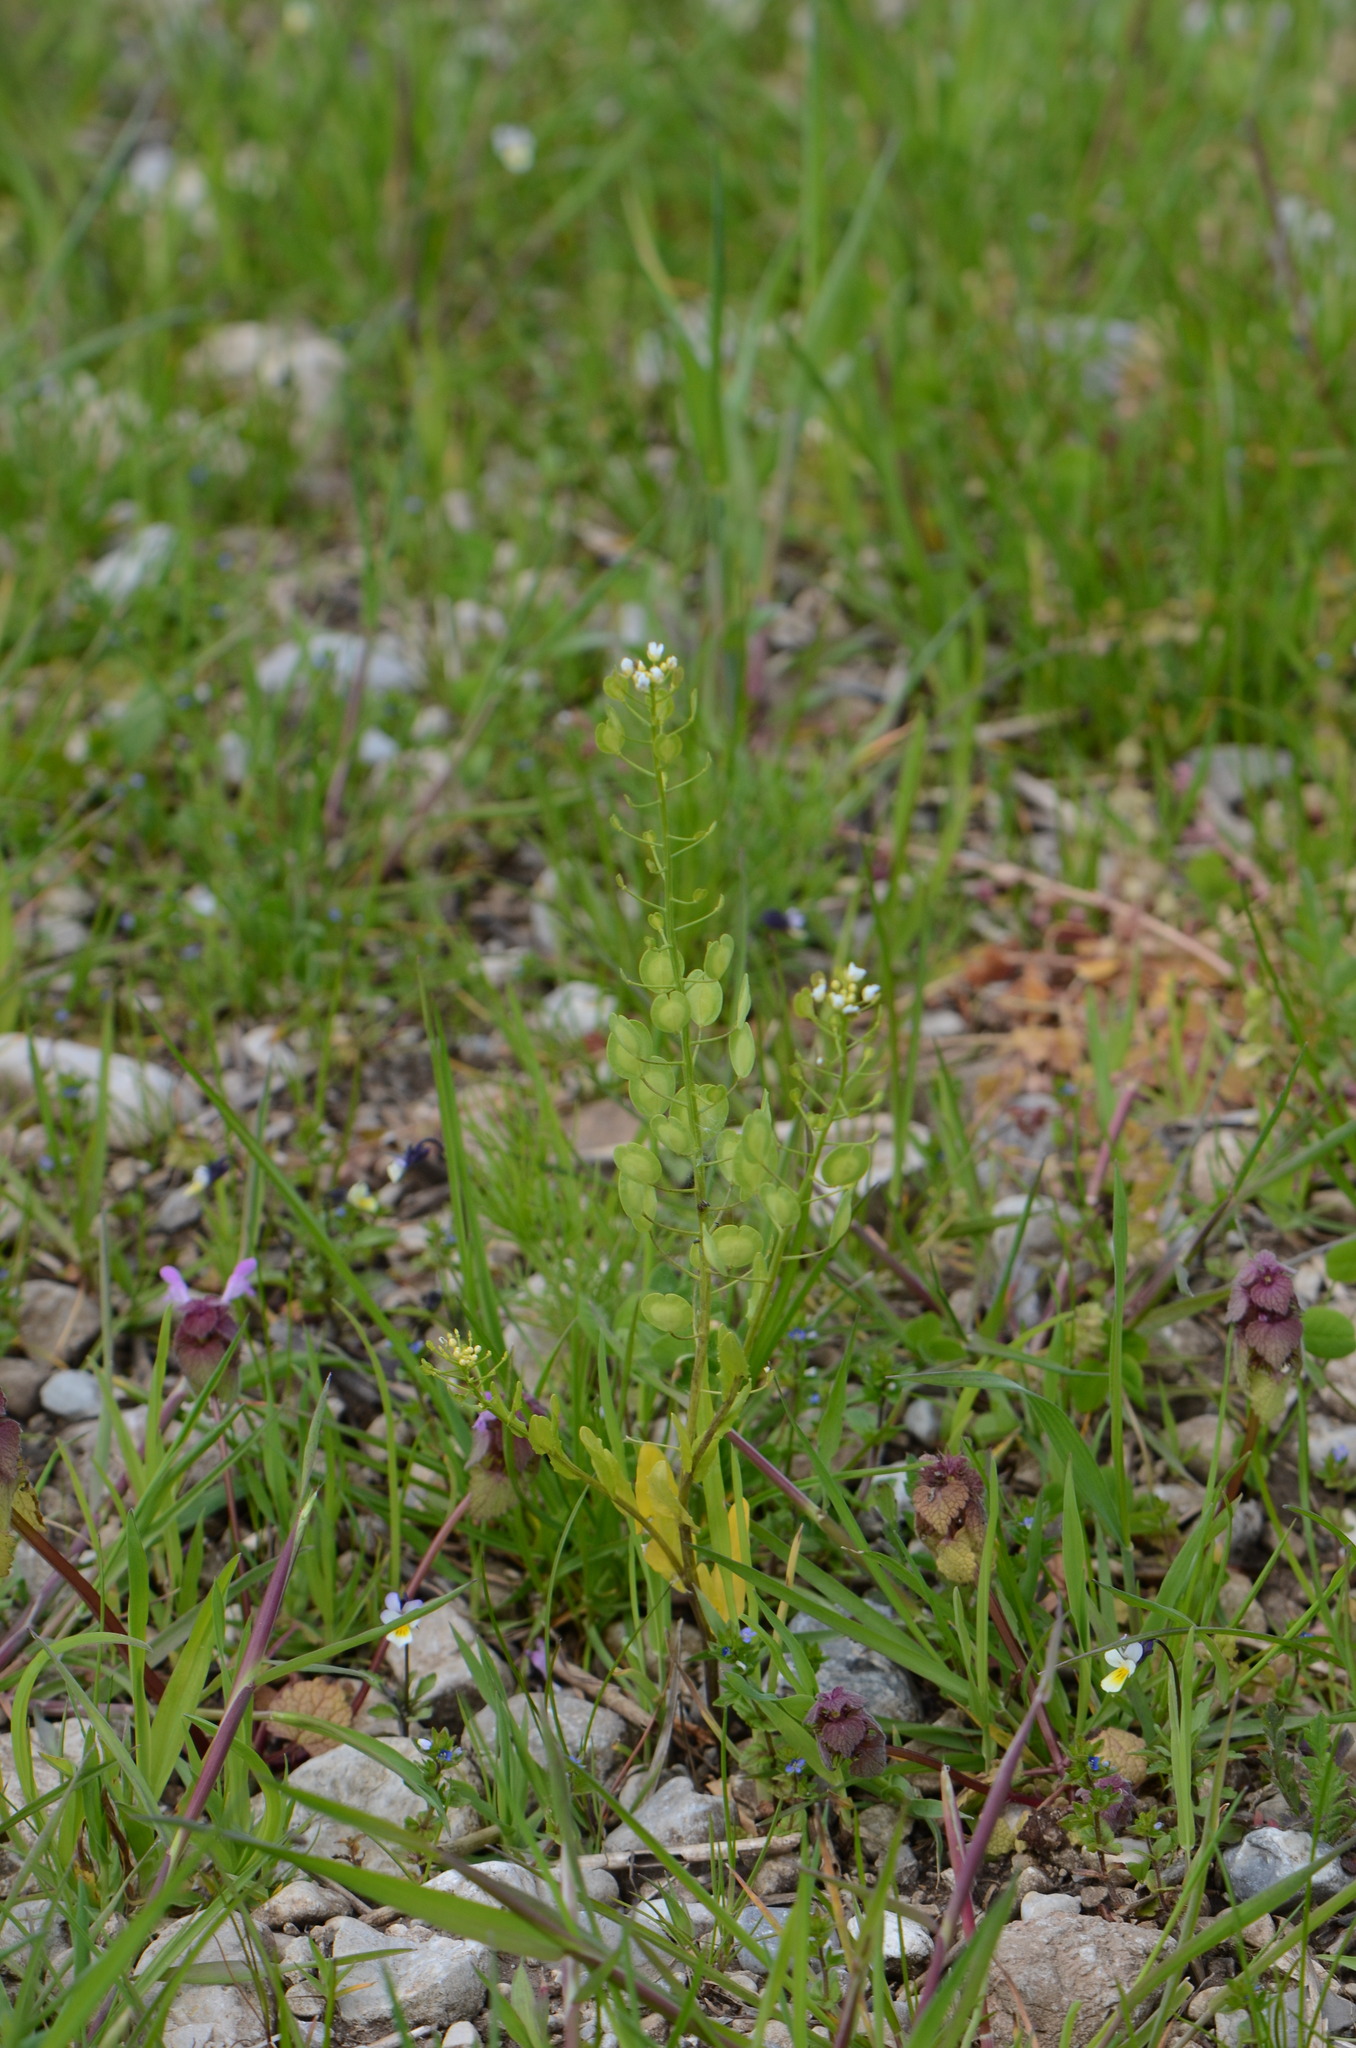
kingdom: Plantae
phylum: Tracheophyta
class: Magnoliopsida
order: Brassicales
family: Brassicaceae
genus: Thlaspi
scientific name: Thlaspi arvense
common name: Field pennycress
